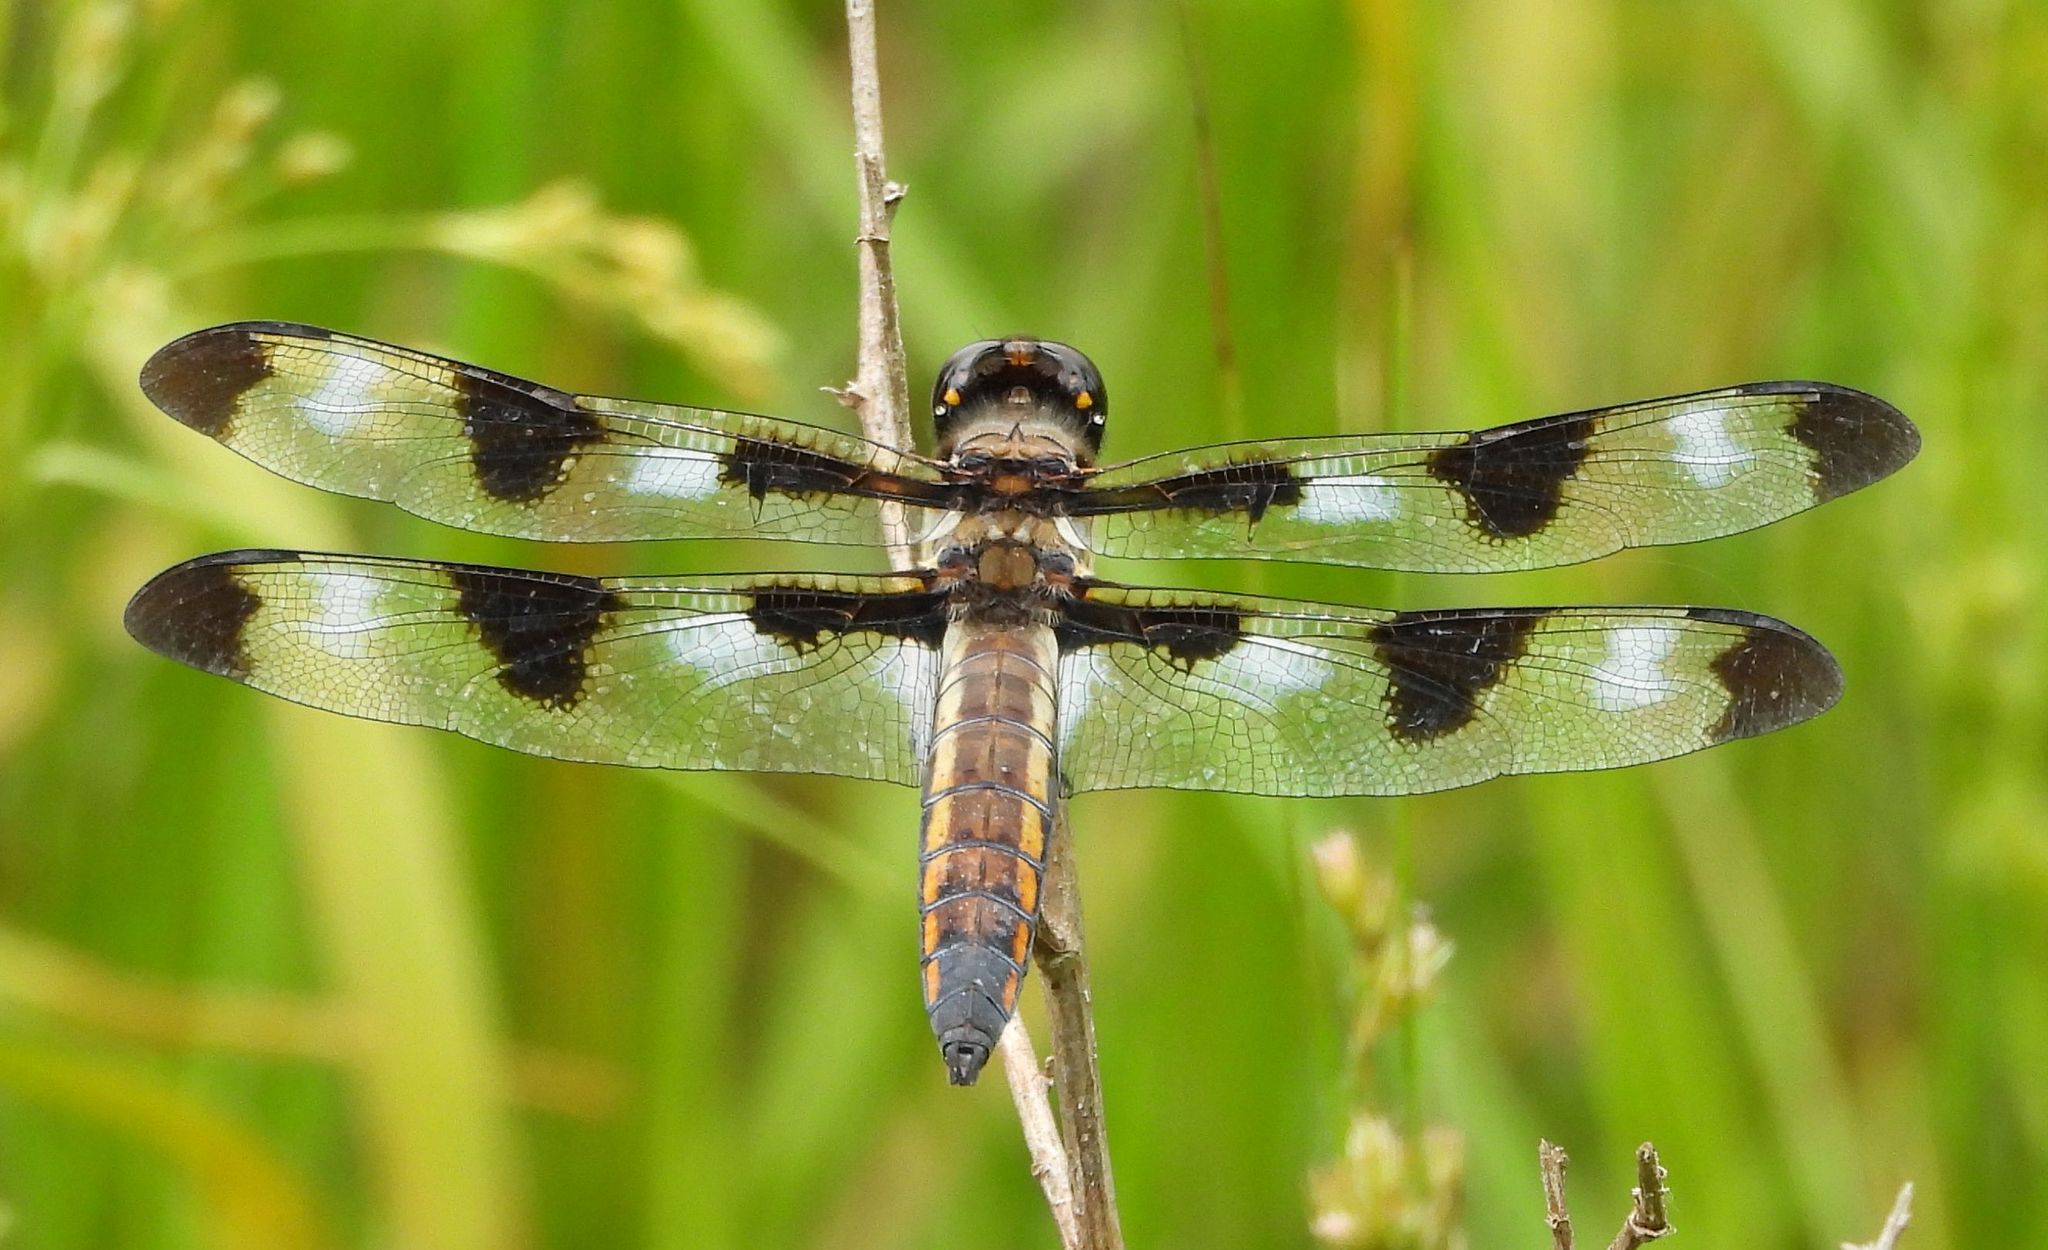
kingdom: Animalia
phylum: Arthropoda
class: Insecta
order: Odonata
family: Libellulidae
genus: Libellula
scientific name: Libellula pulchella
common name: Twelve-spotted skimmer
